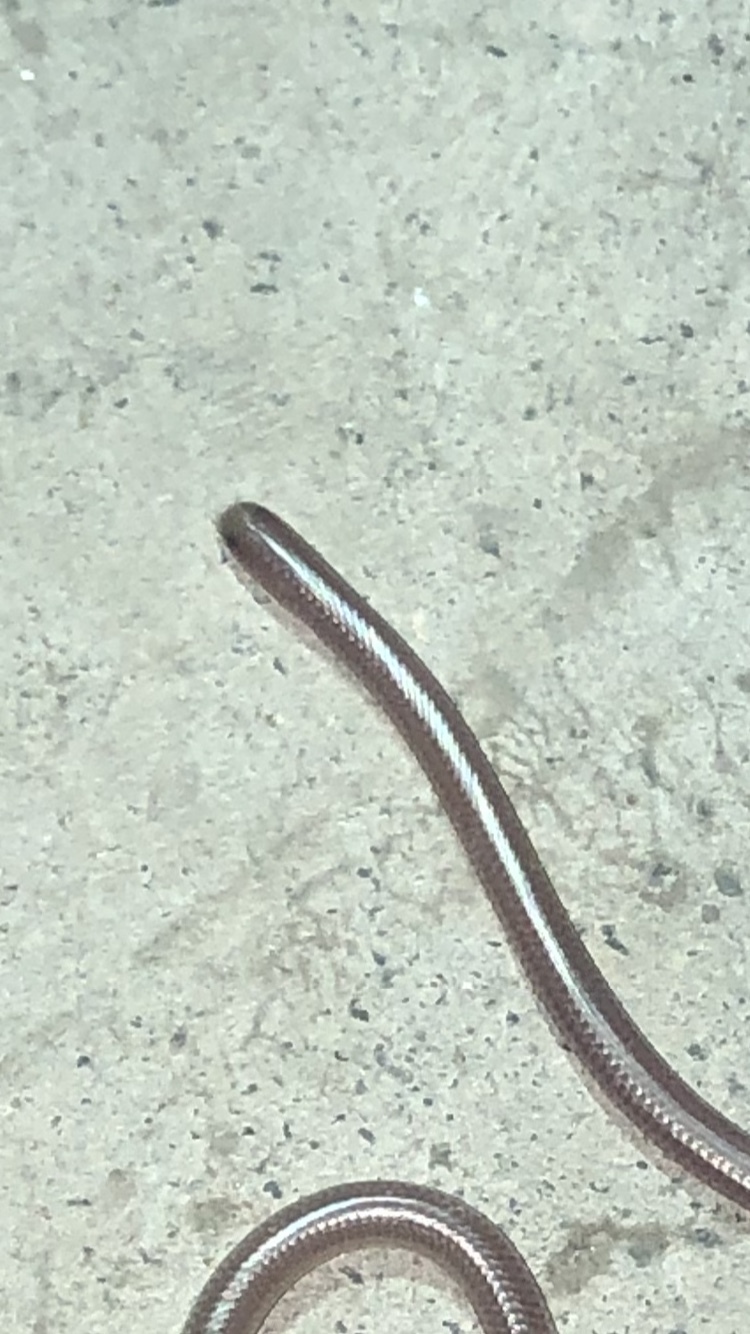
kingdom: Animalia
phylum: Chordata
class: Squamata
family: Leptotyphlopidae
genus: Rena
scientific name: Rena humilis
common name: Western threadsnake
